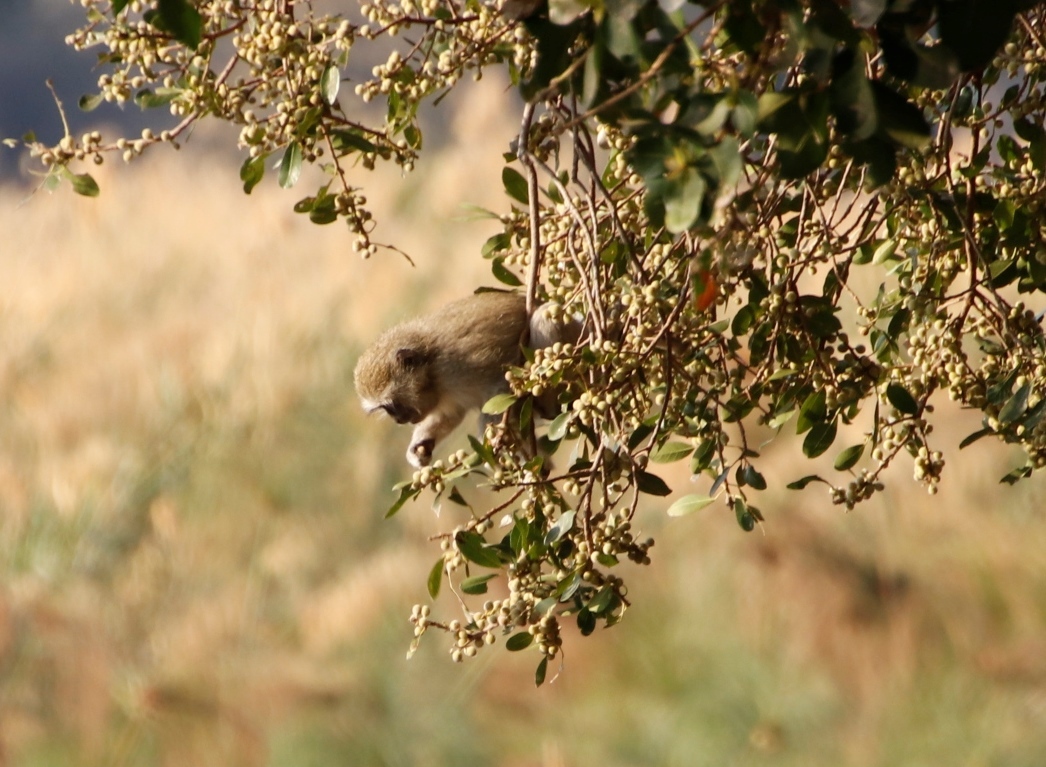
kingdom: Animalia
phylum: Chordata
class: Mammalia
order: Primates
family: Cercopithecidae
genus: Chlorocebus
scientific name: Chlorocebus cynosuros
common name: Malbrouck
